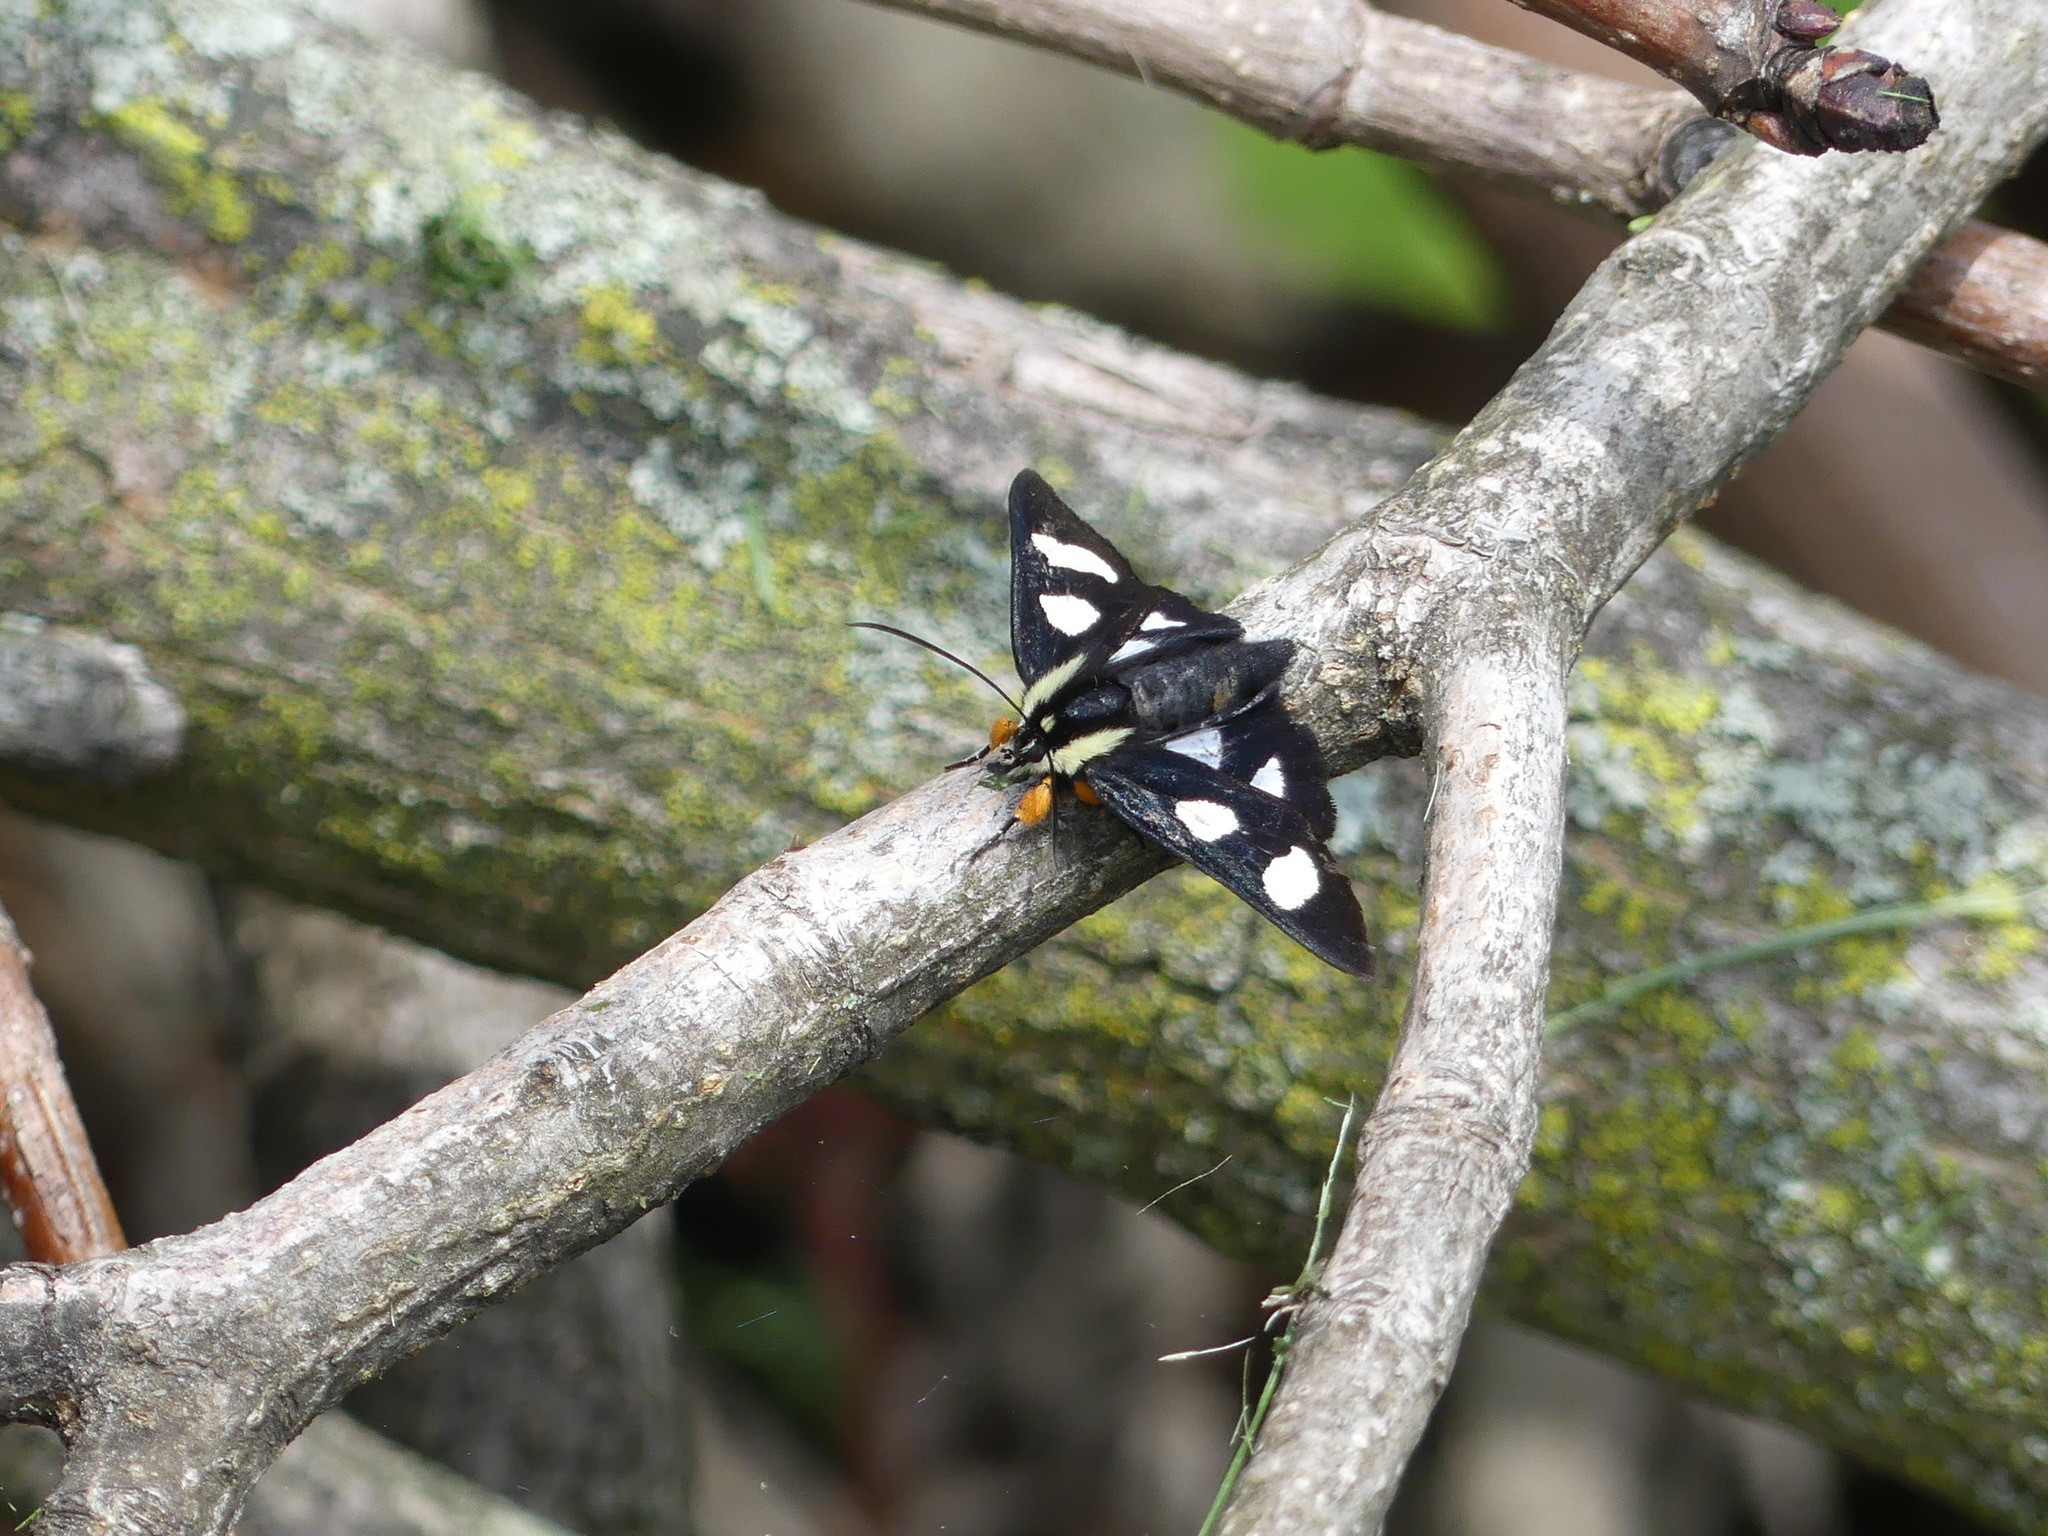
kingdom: Animalia
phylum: Arthropoda
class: Insecta
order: Lepidoptera
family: Noctuidae
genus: Alypia
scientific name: Alypia octomaculata
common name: Eight-spotted forester
